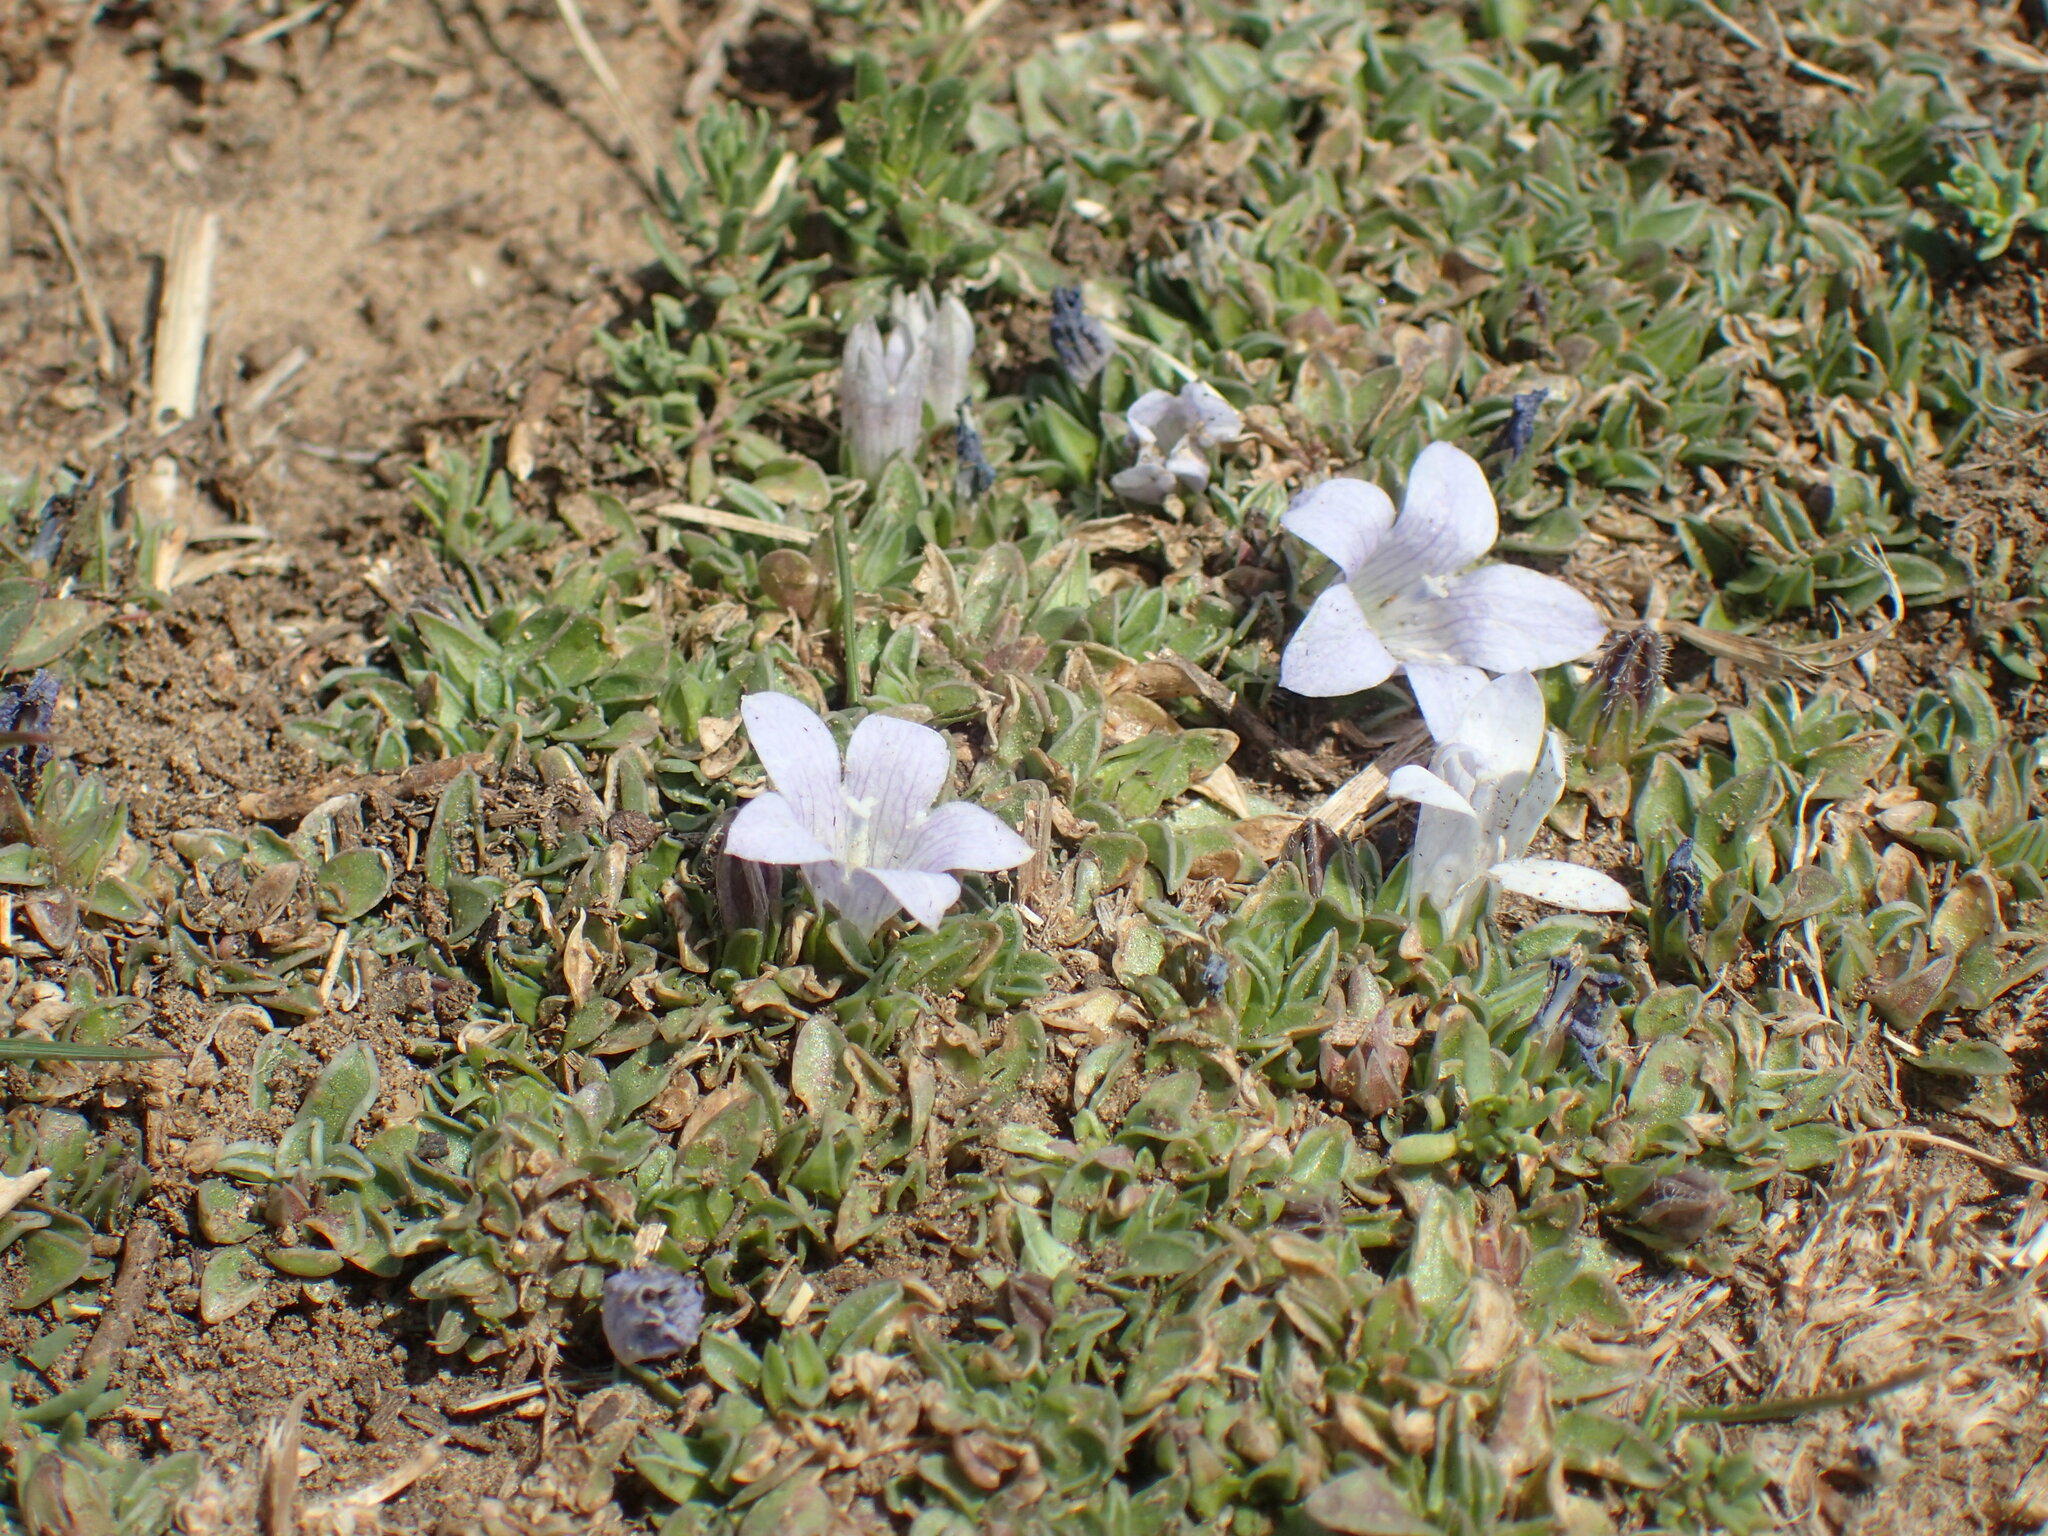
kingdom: Plantae
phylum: Tracheophyta
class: Magnoliopsida
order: Asterales
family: Campanulaceae
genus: Craterocapsa
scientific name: Craterocapsa tarsodes
